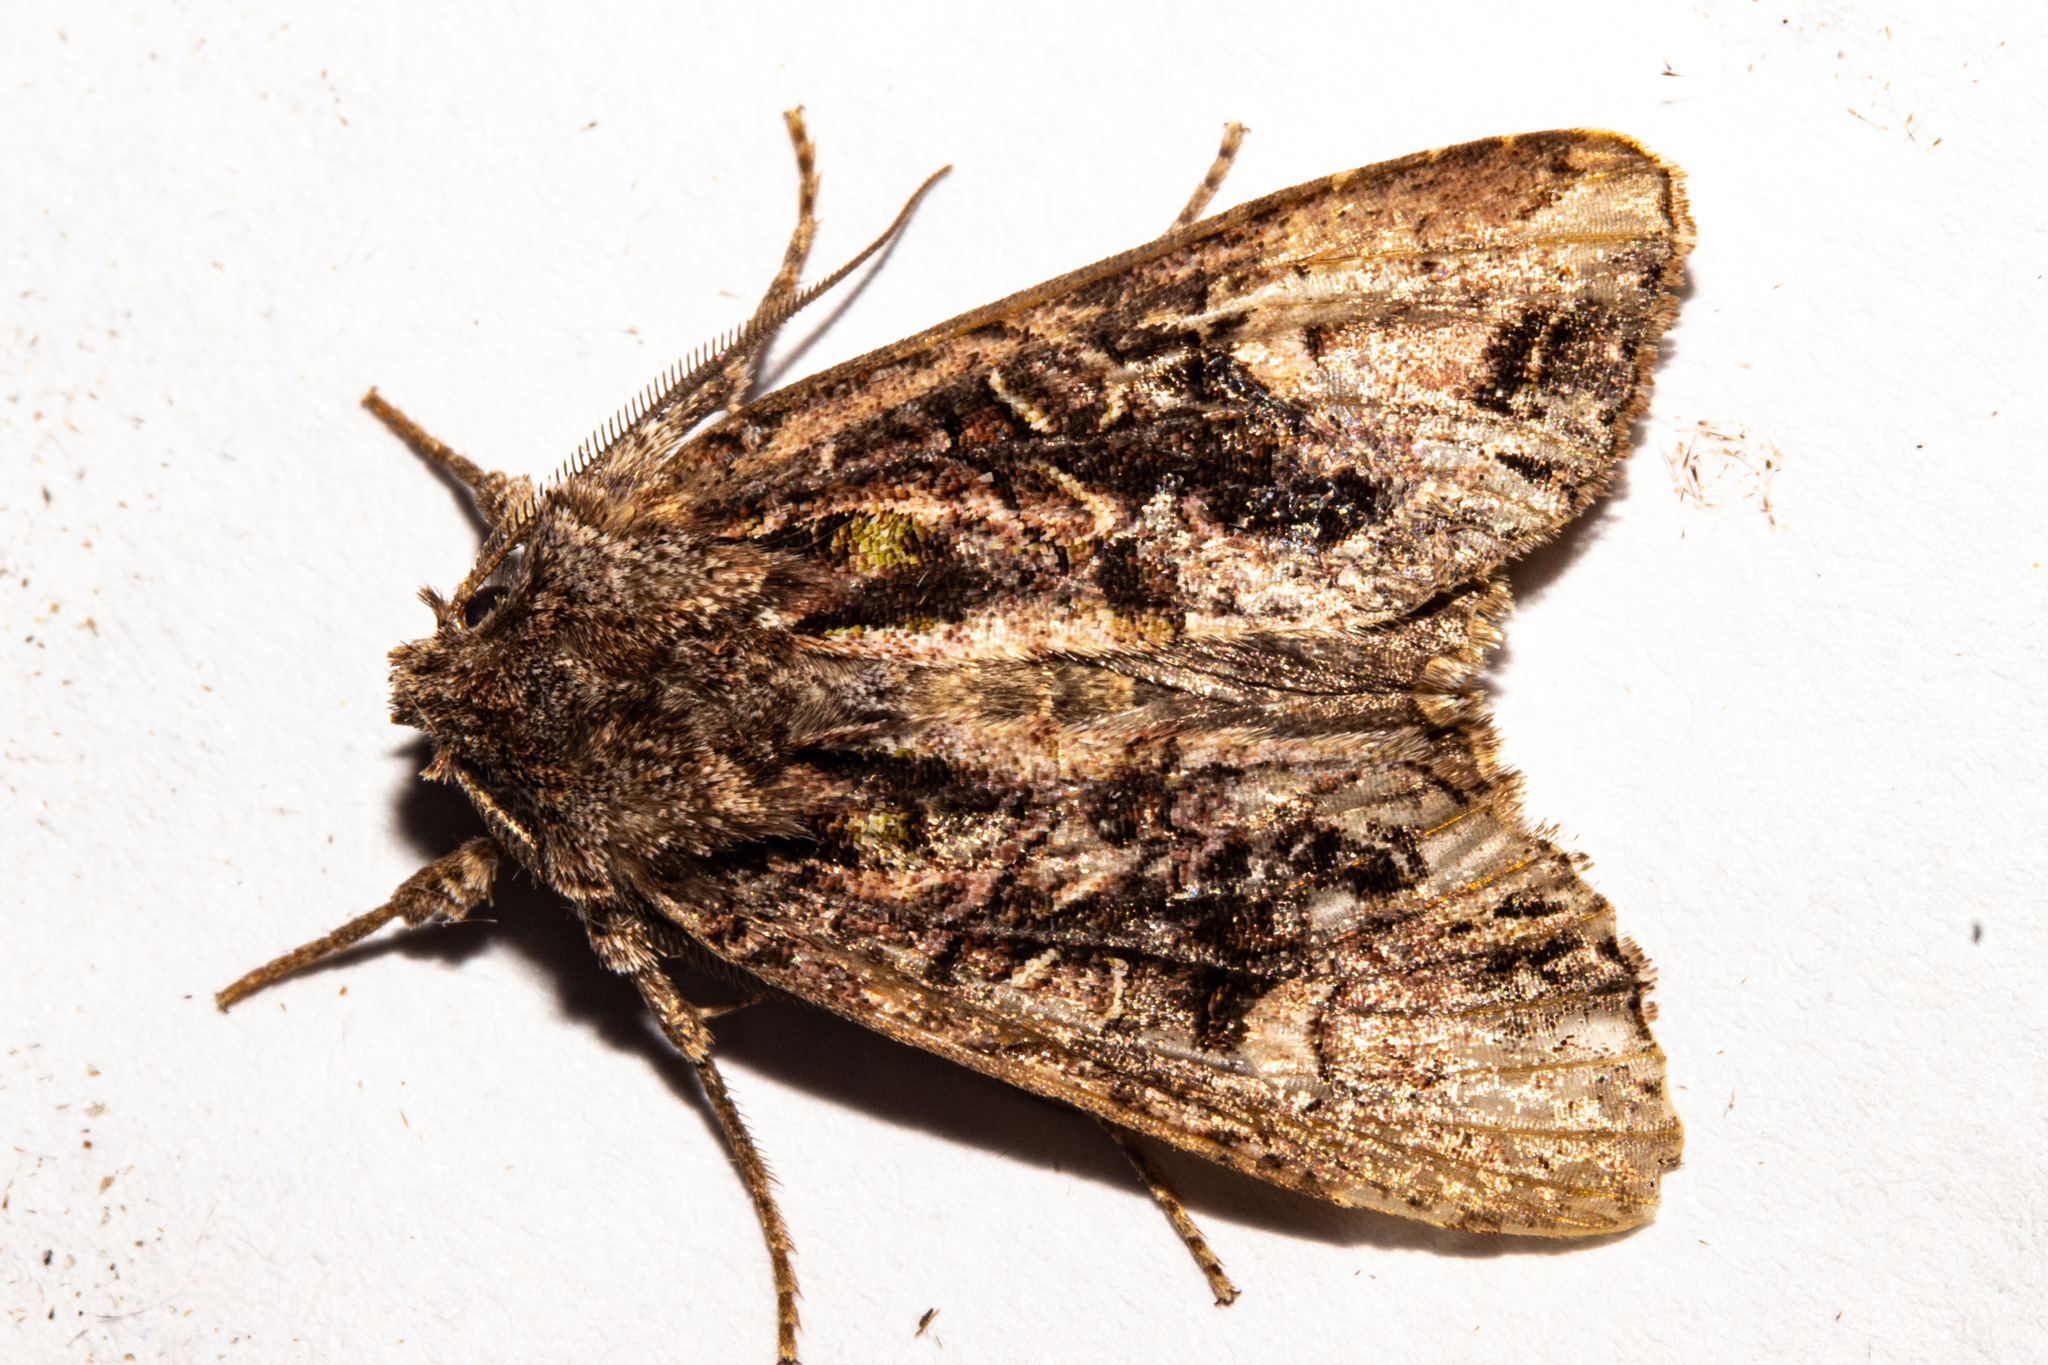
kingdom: Animalia
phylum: Arthropoda
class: Insecta
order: Lepidoptera
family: Noctuidae
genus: Ichneutica
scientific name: Ichneutica insignis
